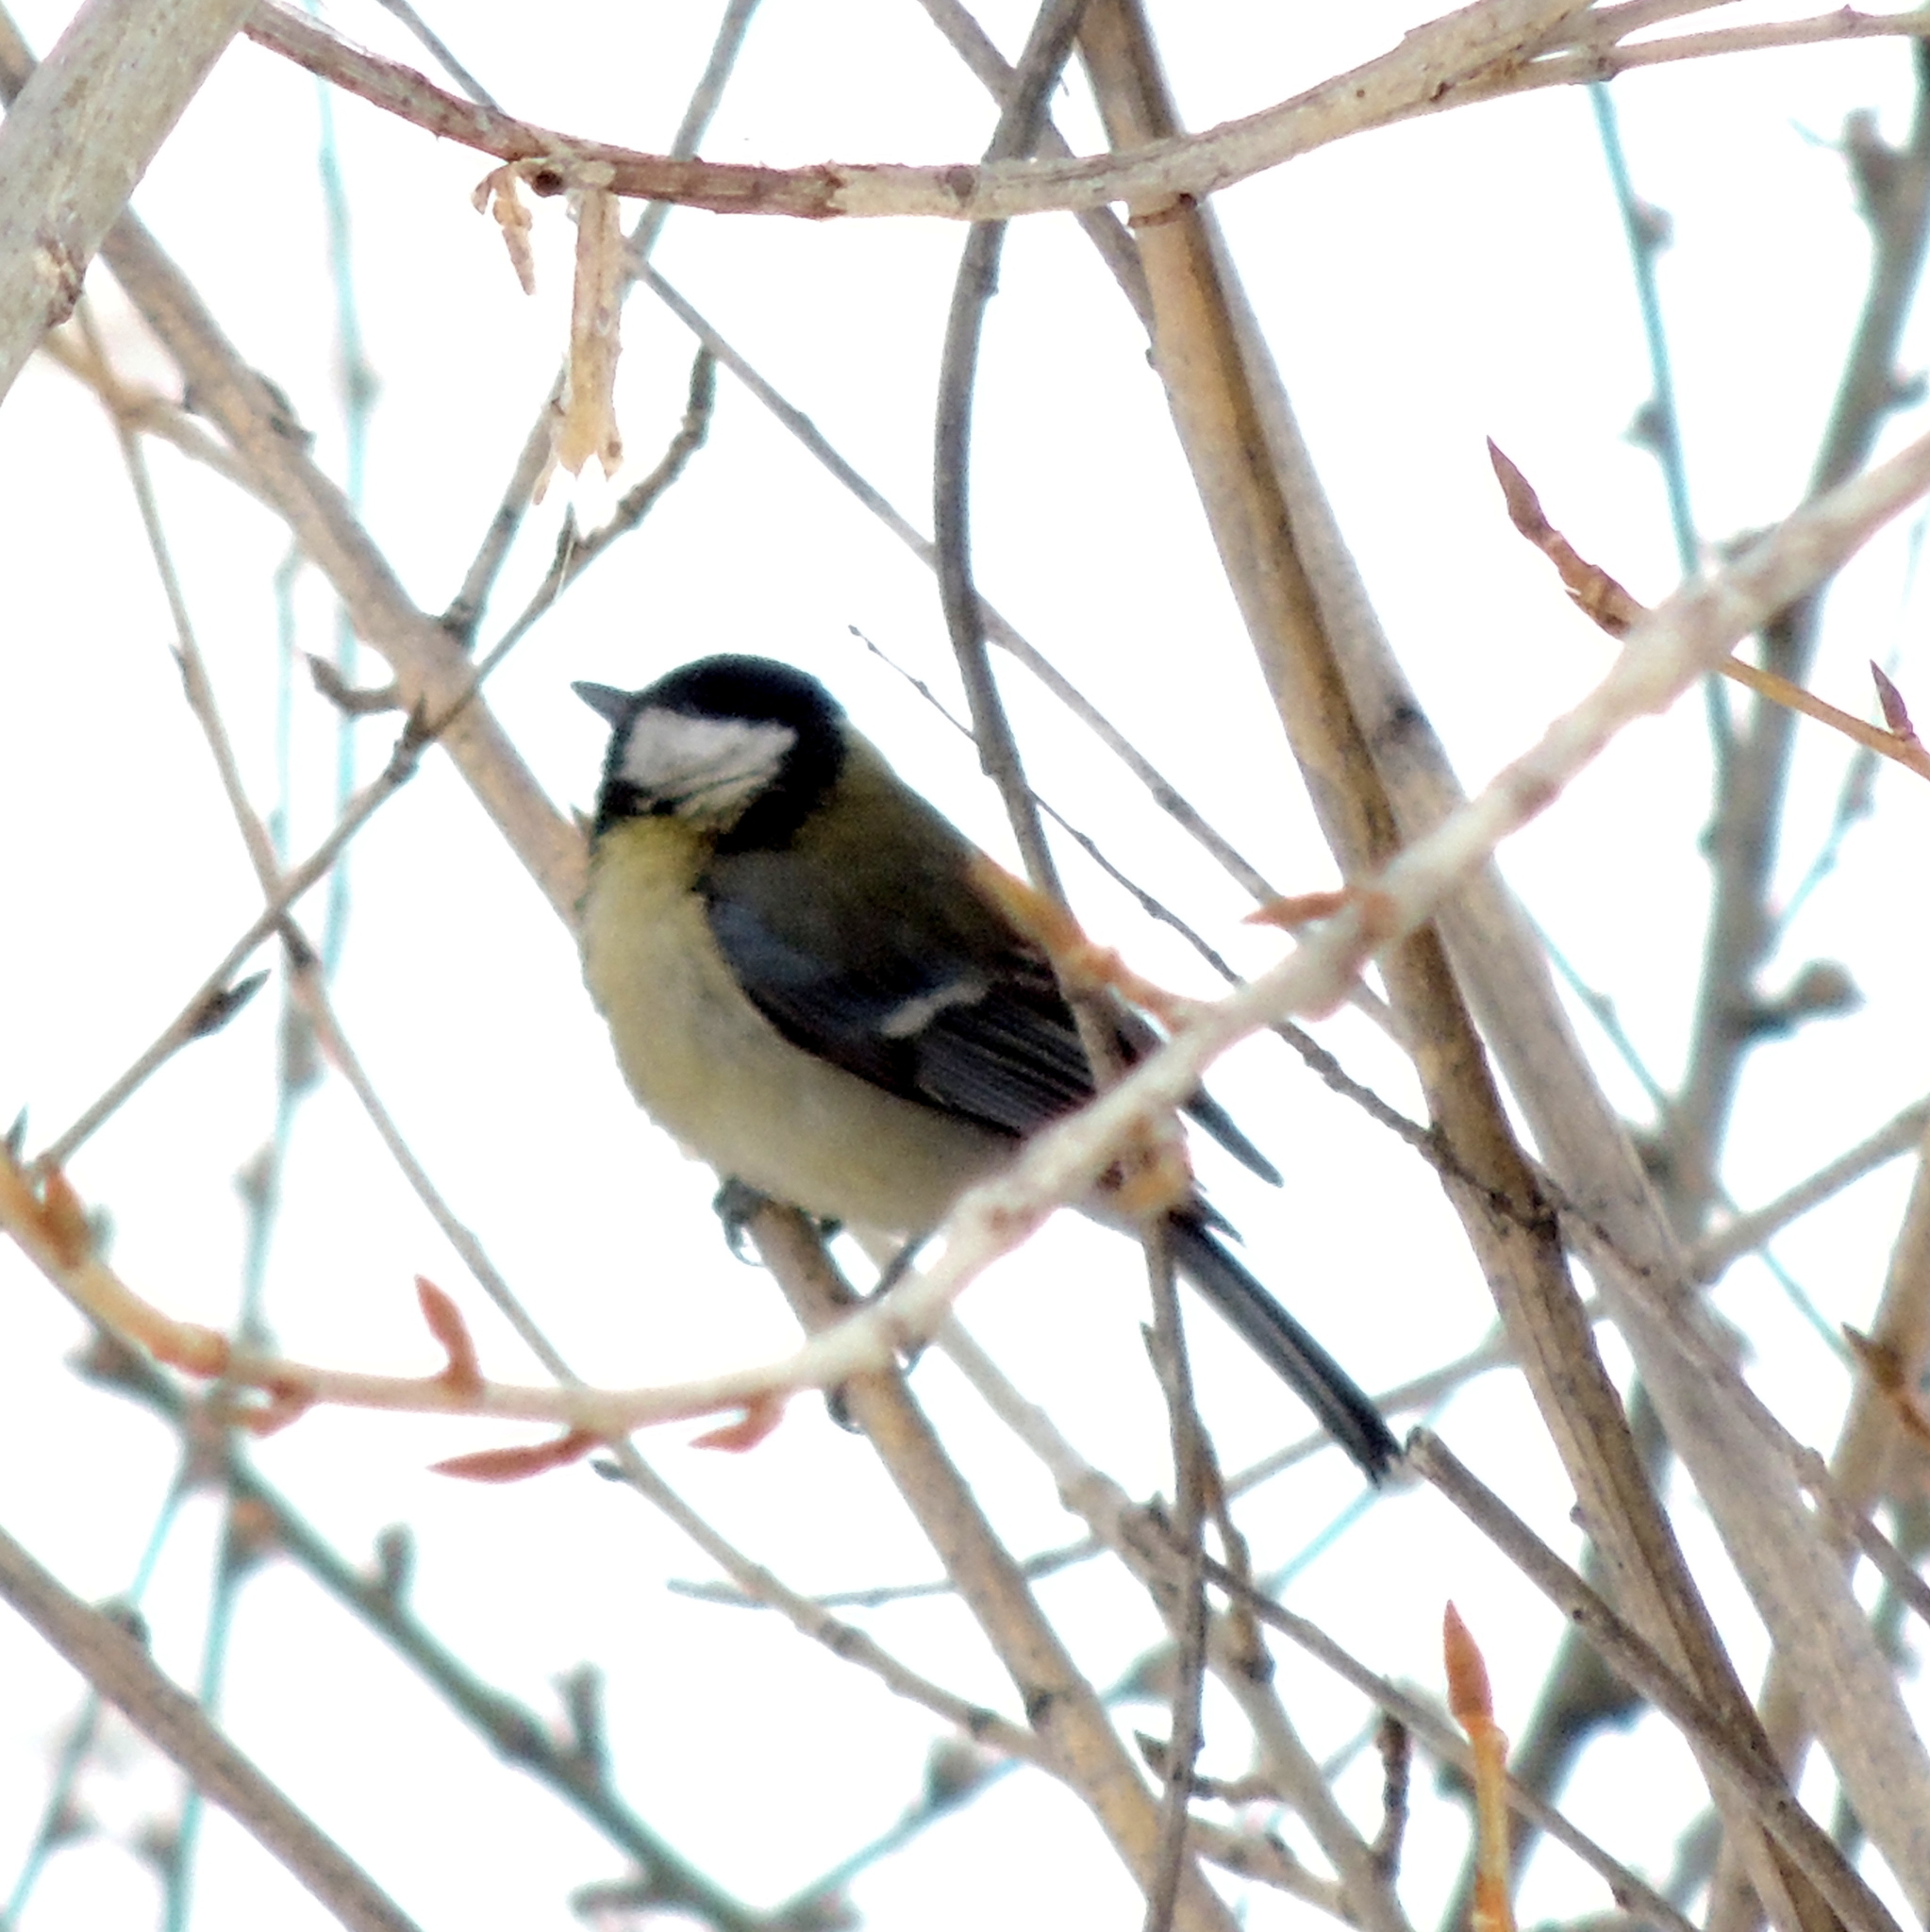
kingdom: Animalia
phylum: Chordata
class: Aves
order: Passeriformes
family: Paridae
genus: Parus
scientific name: Parus major
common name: Great tit
